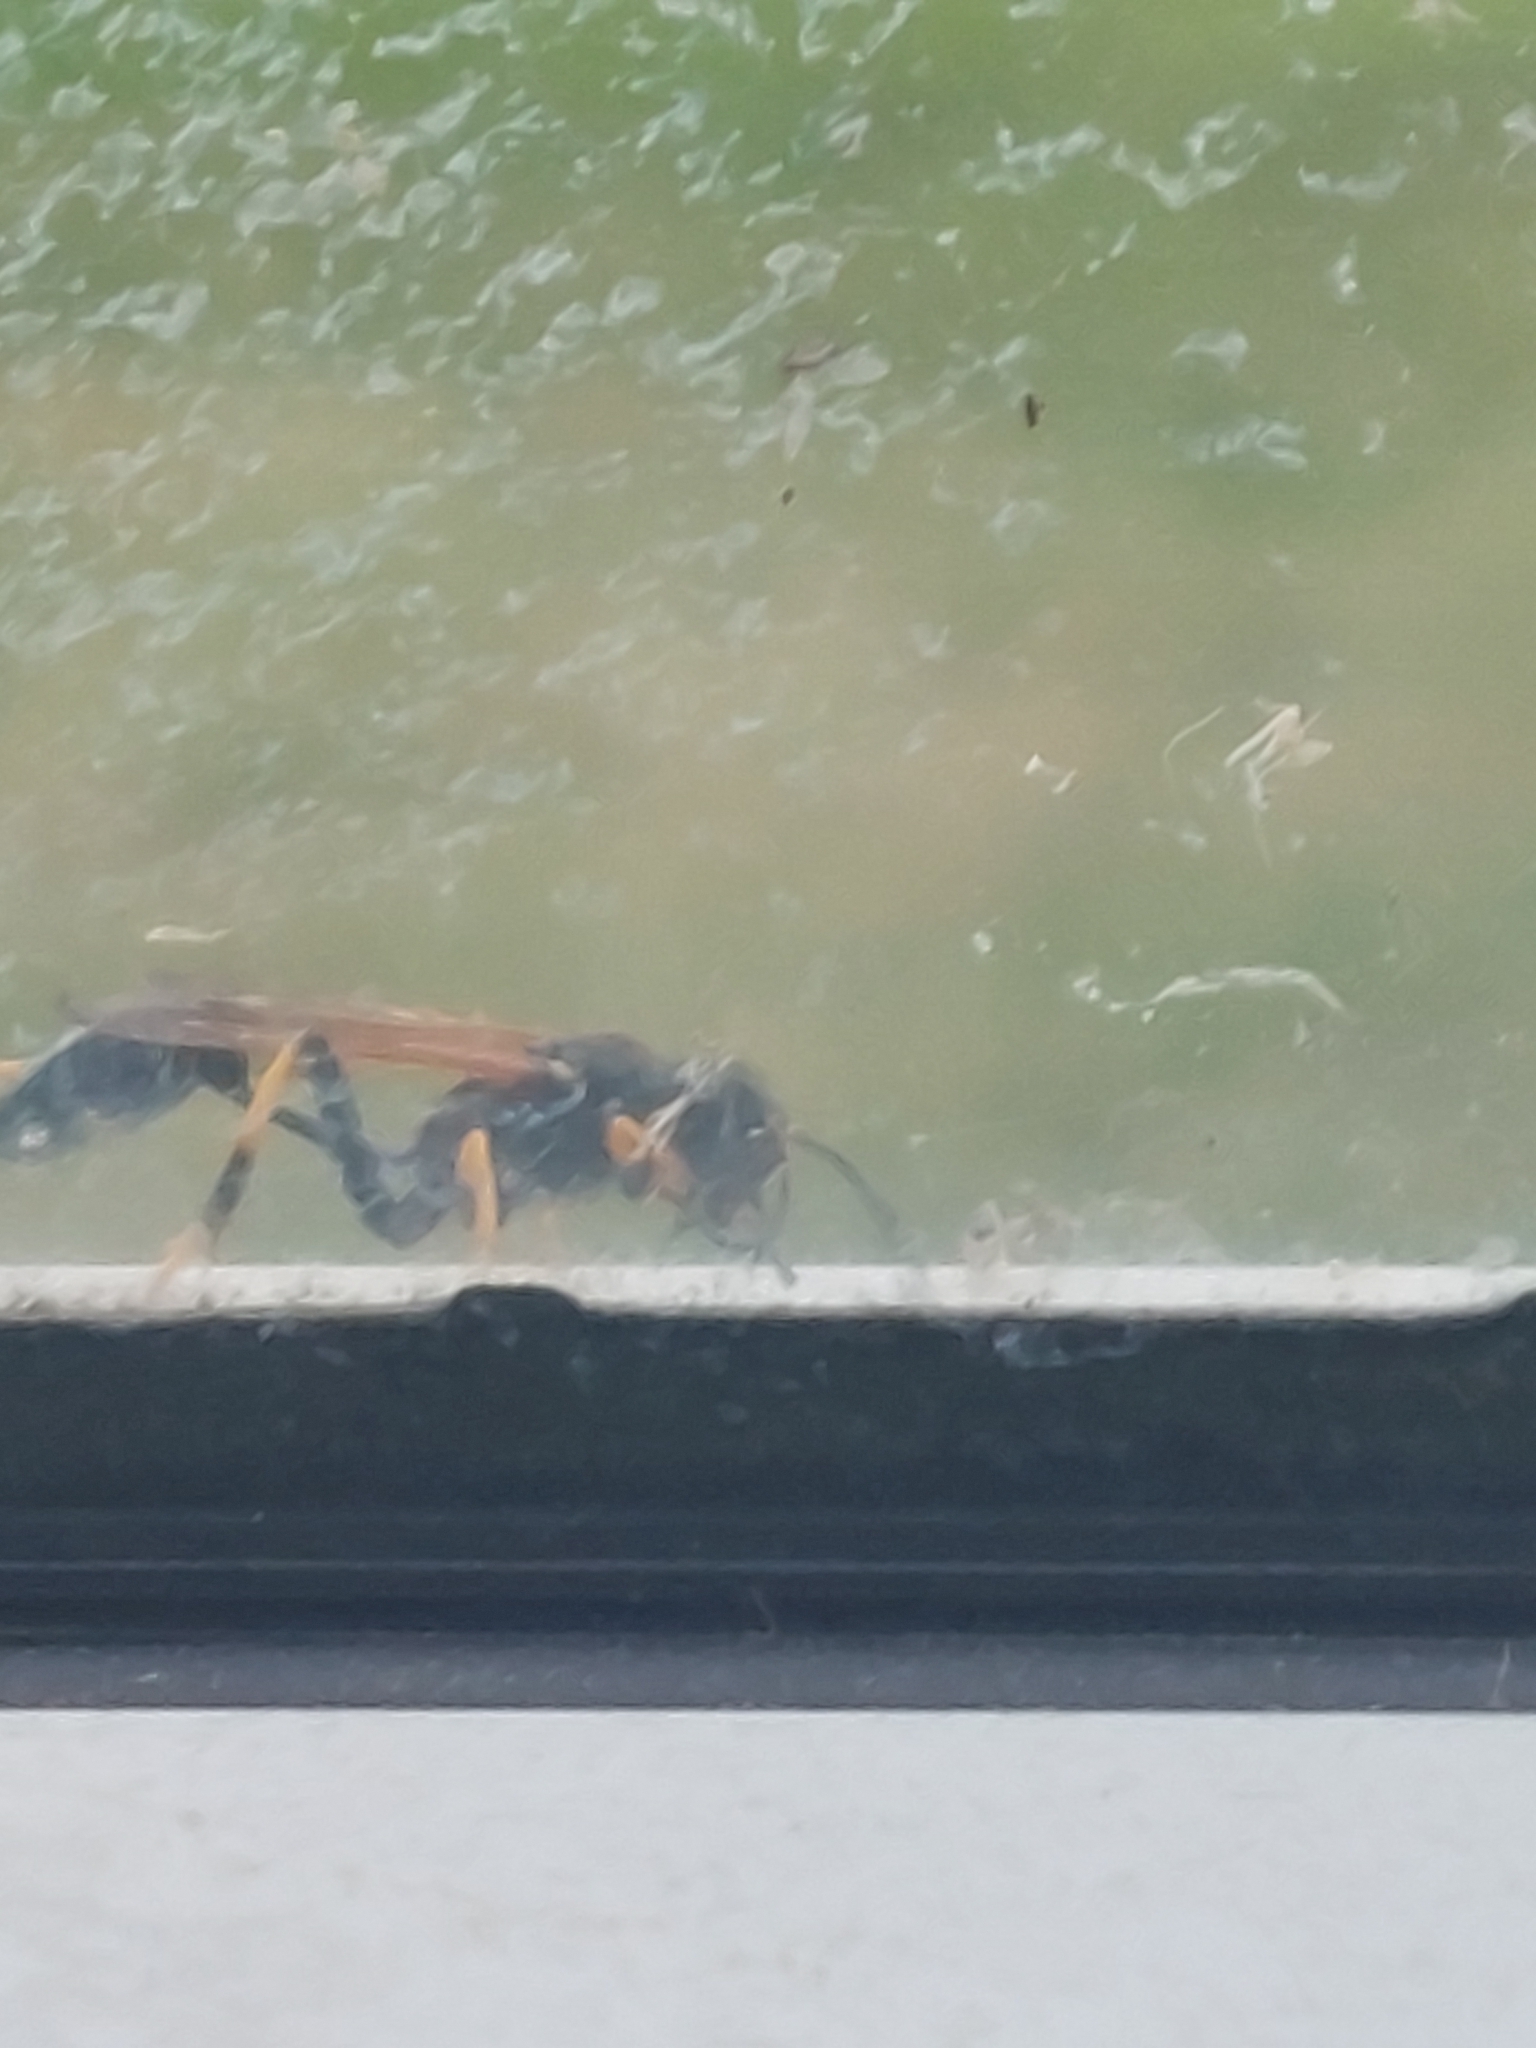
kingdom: Animalia
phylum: Arthropoda
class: Insecta
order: Hymenoptera
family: Sphecidae
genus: Sceliphron
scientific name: Sceliphron caementarium
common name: Mud dauber
